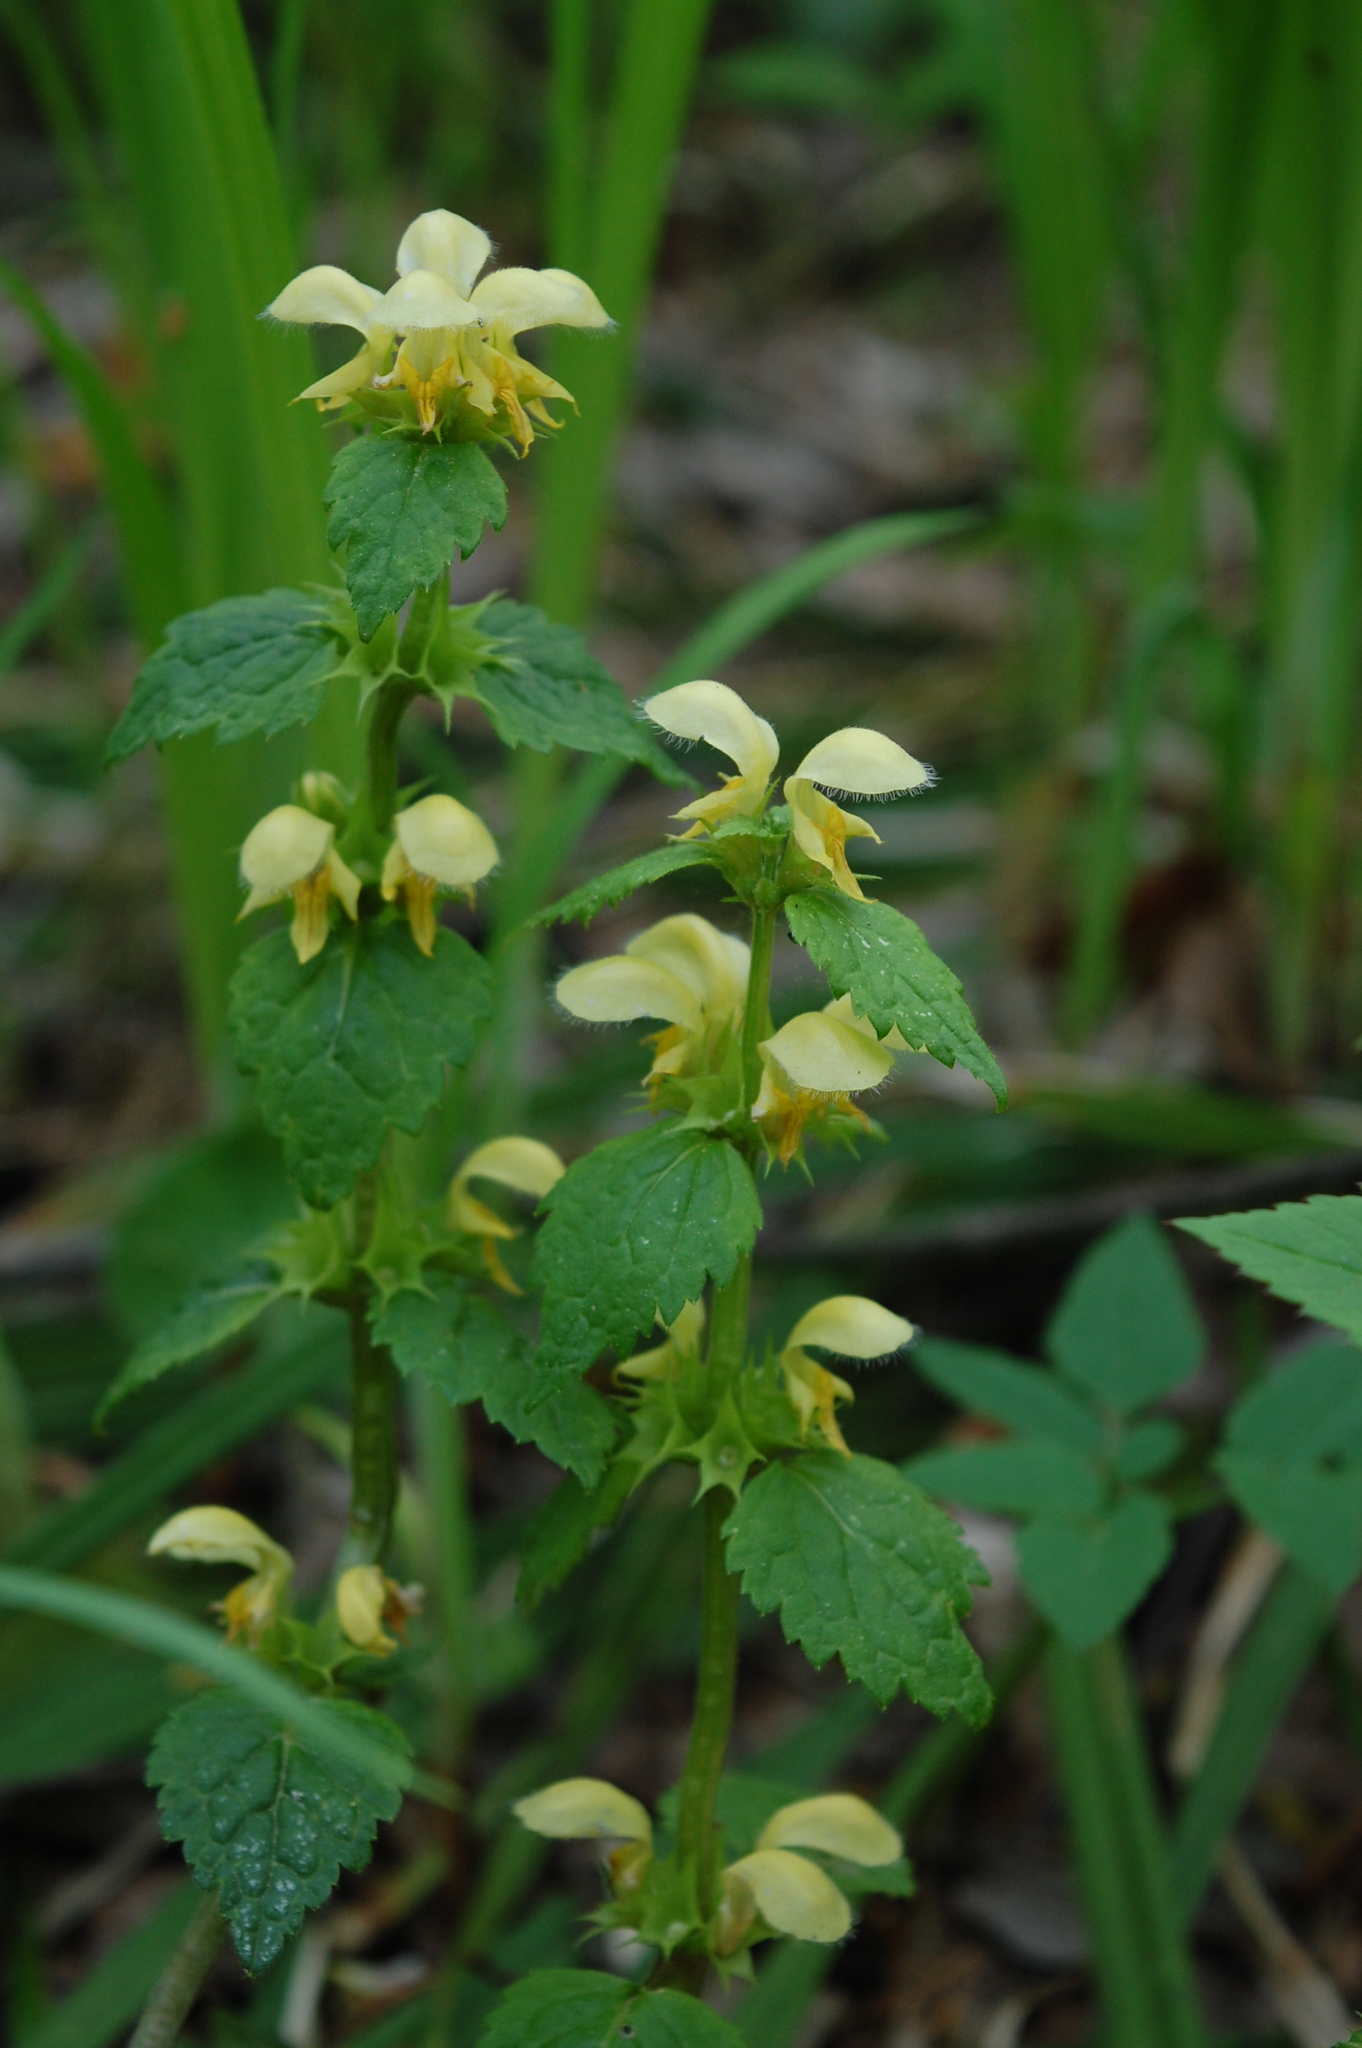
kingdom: Plantae
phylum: Tracheophyta
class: Magnoliopsida
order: Lamiales
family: Lamiaceae
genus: Lamium
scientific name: Lamium galeobdolon
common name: Yellow archangel
